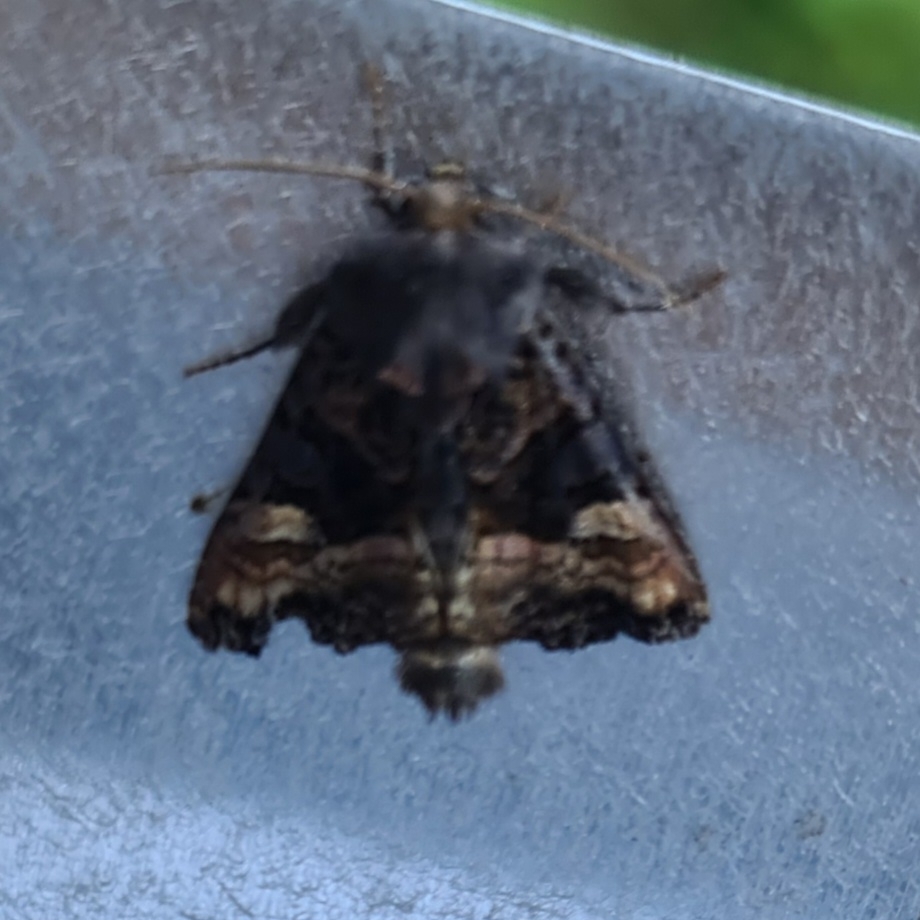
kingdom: Animalia
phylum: Arthropoda
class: Insecta
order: Lepidoptera
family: Noctuidae
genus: Euplexia
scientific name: Euplexia lucipara
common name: Small angle shades
